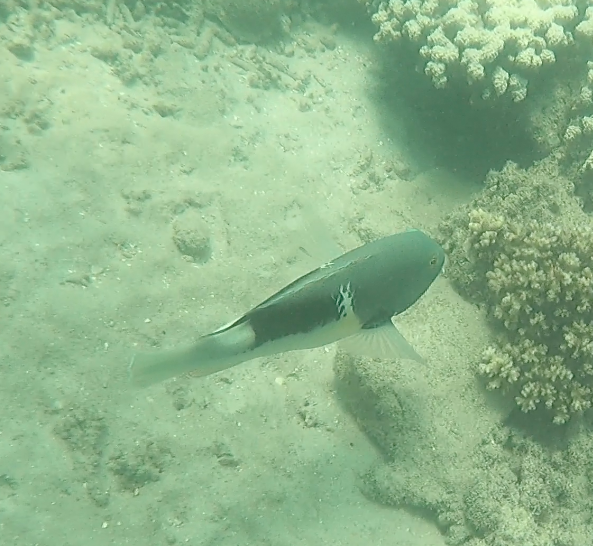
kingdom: Animalia
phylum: Chordata
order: Perciformes
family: Labridae
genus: Choerodon
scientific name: Choerodon anchorago
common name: Anchor tuskfish
